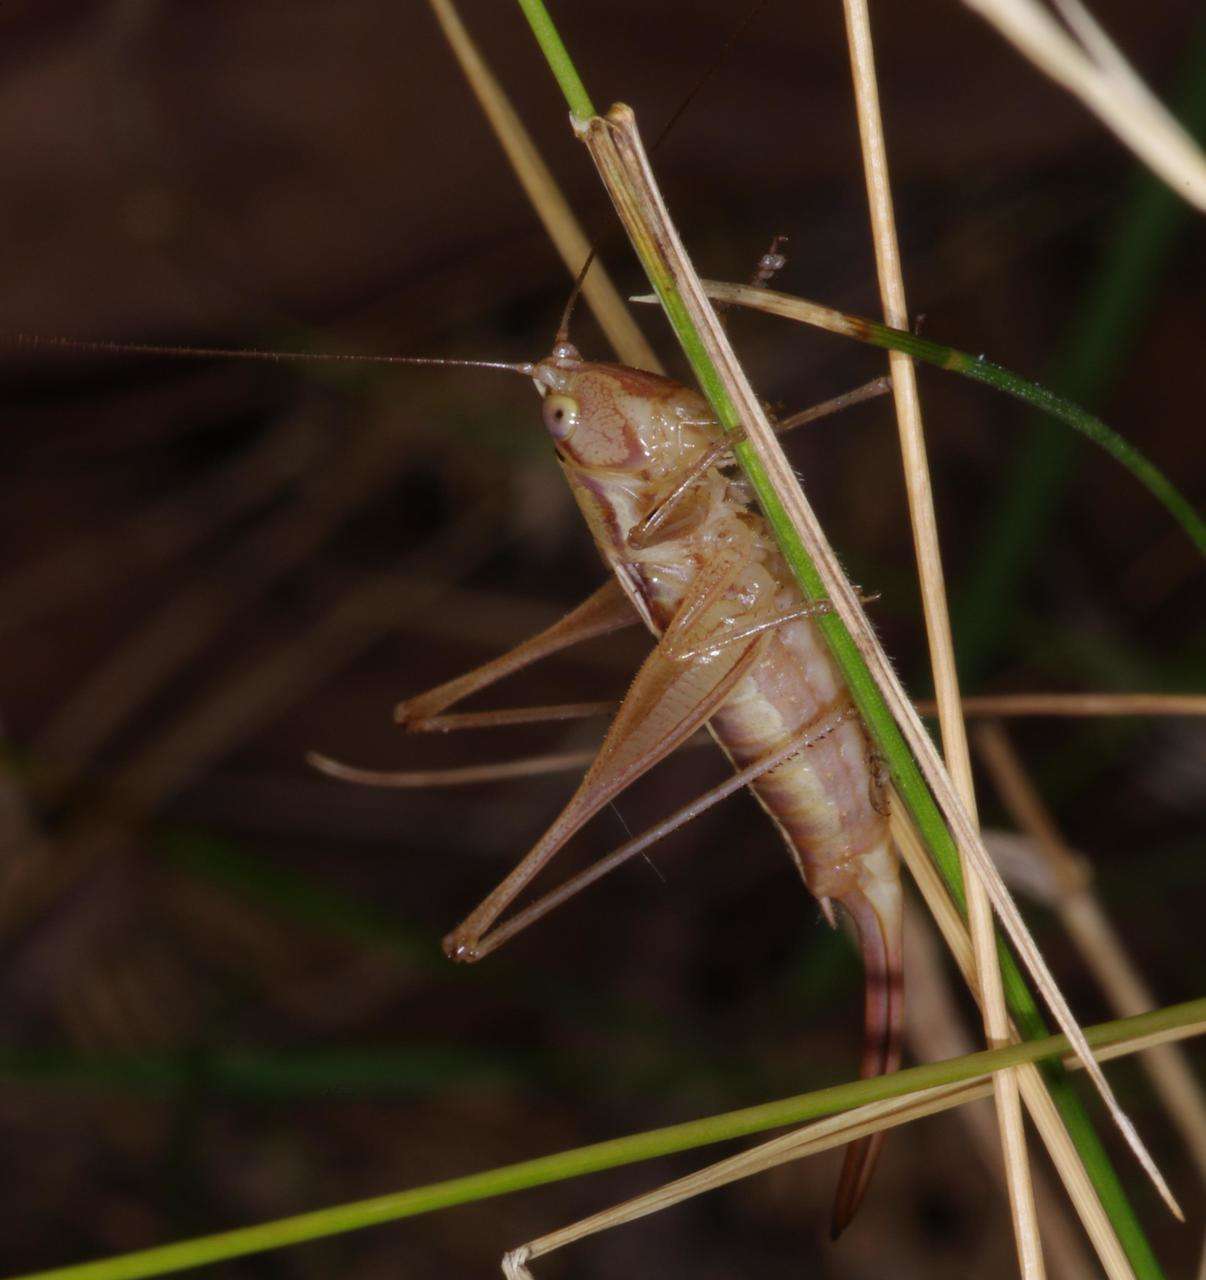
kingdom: Animalia
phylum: Arthropoda
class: Insecta
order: Orthoptera
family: Tettigoniidae
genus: Conocephalus
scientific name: Conocephalus bilineatus
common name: Small meadow katydid
